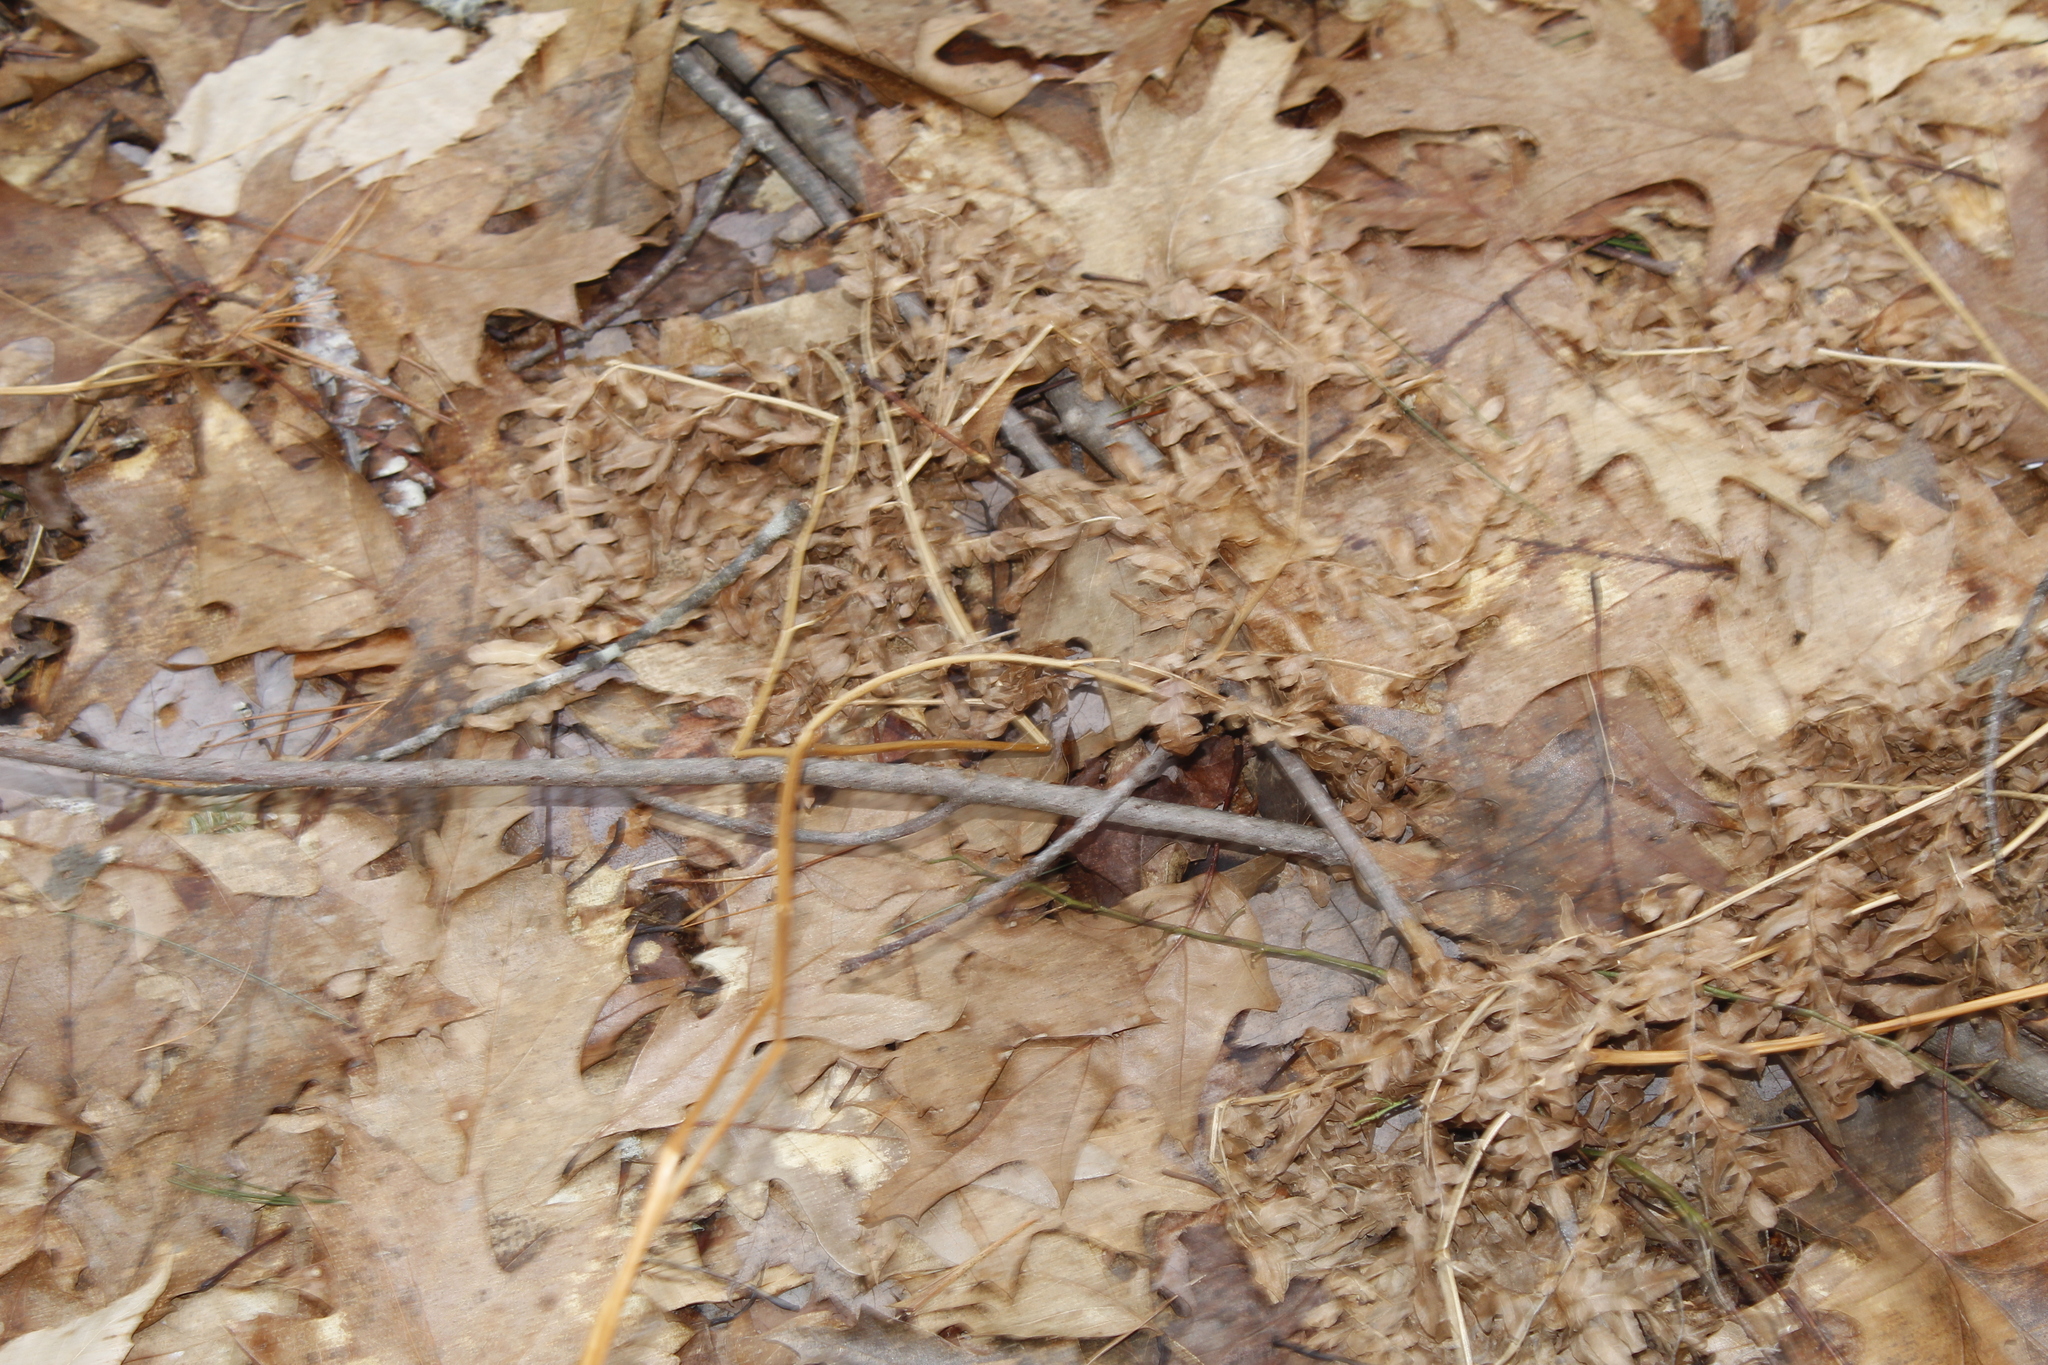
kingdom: Plantae
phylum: Tracheophyta
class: Polypodiopsida
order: Polypodiales
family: Dennstaedtiaceae
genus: Pteridium
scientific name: Pteridium aquilinum
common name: Bracken
